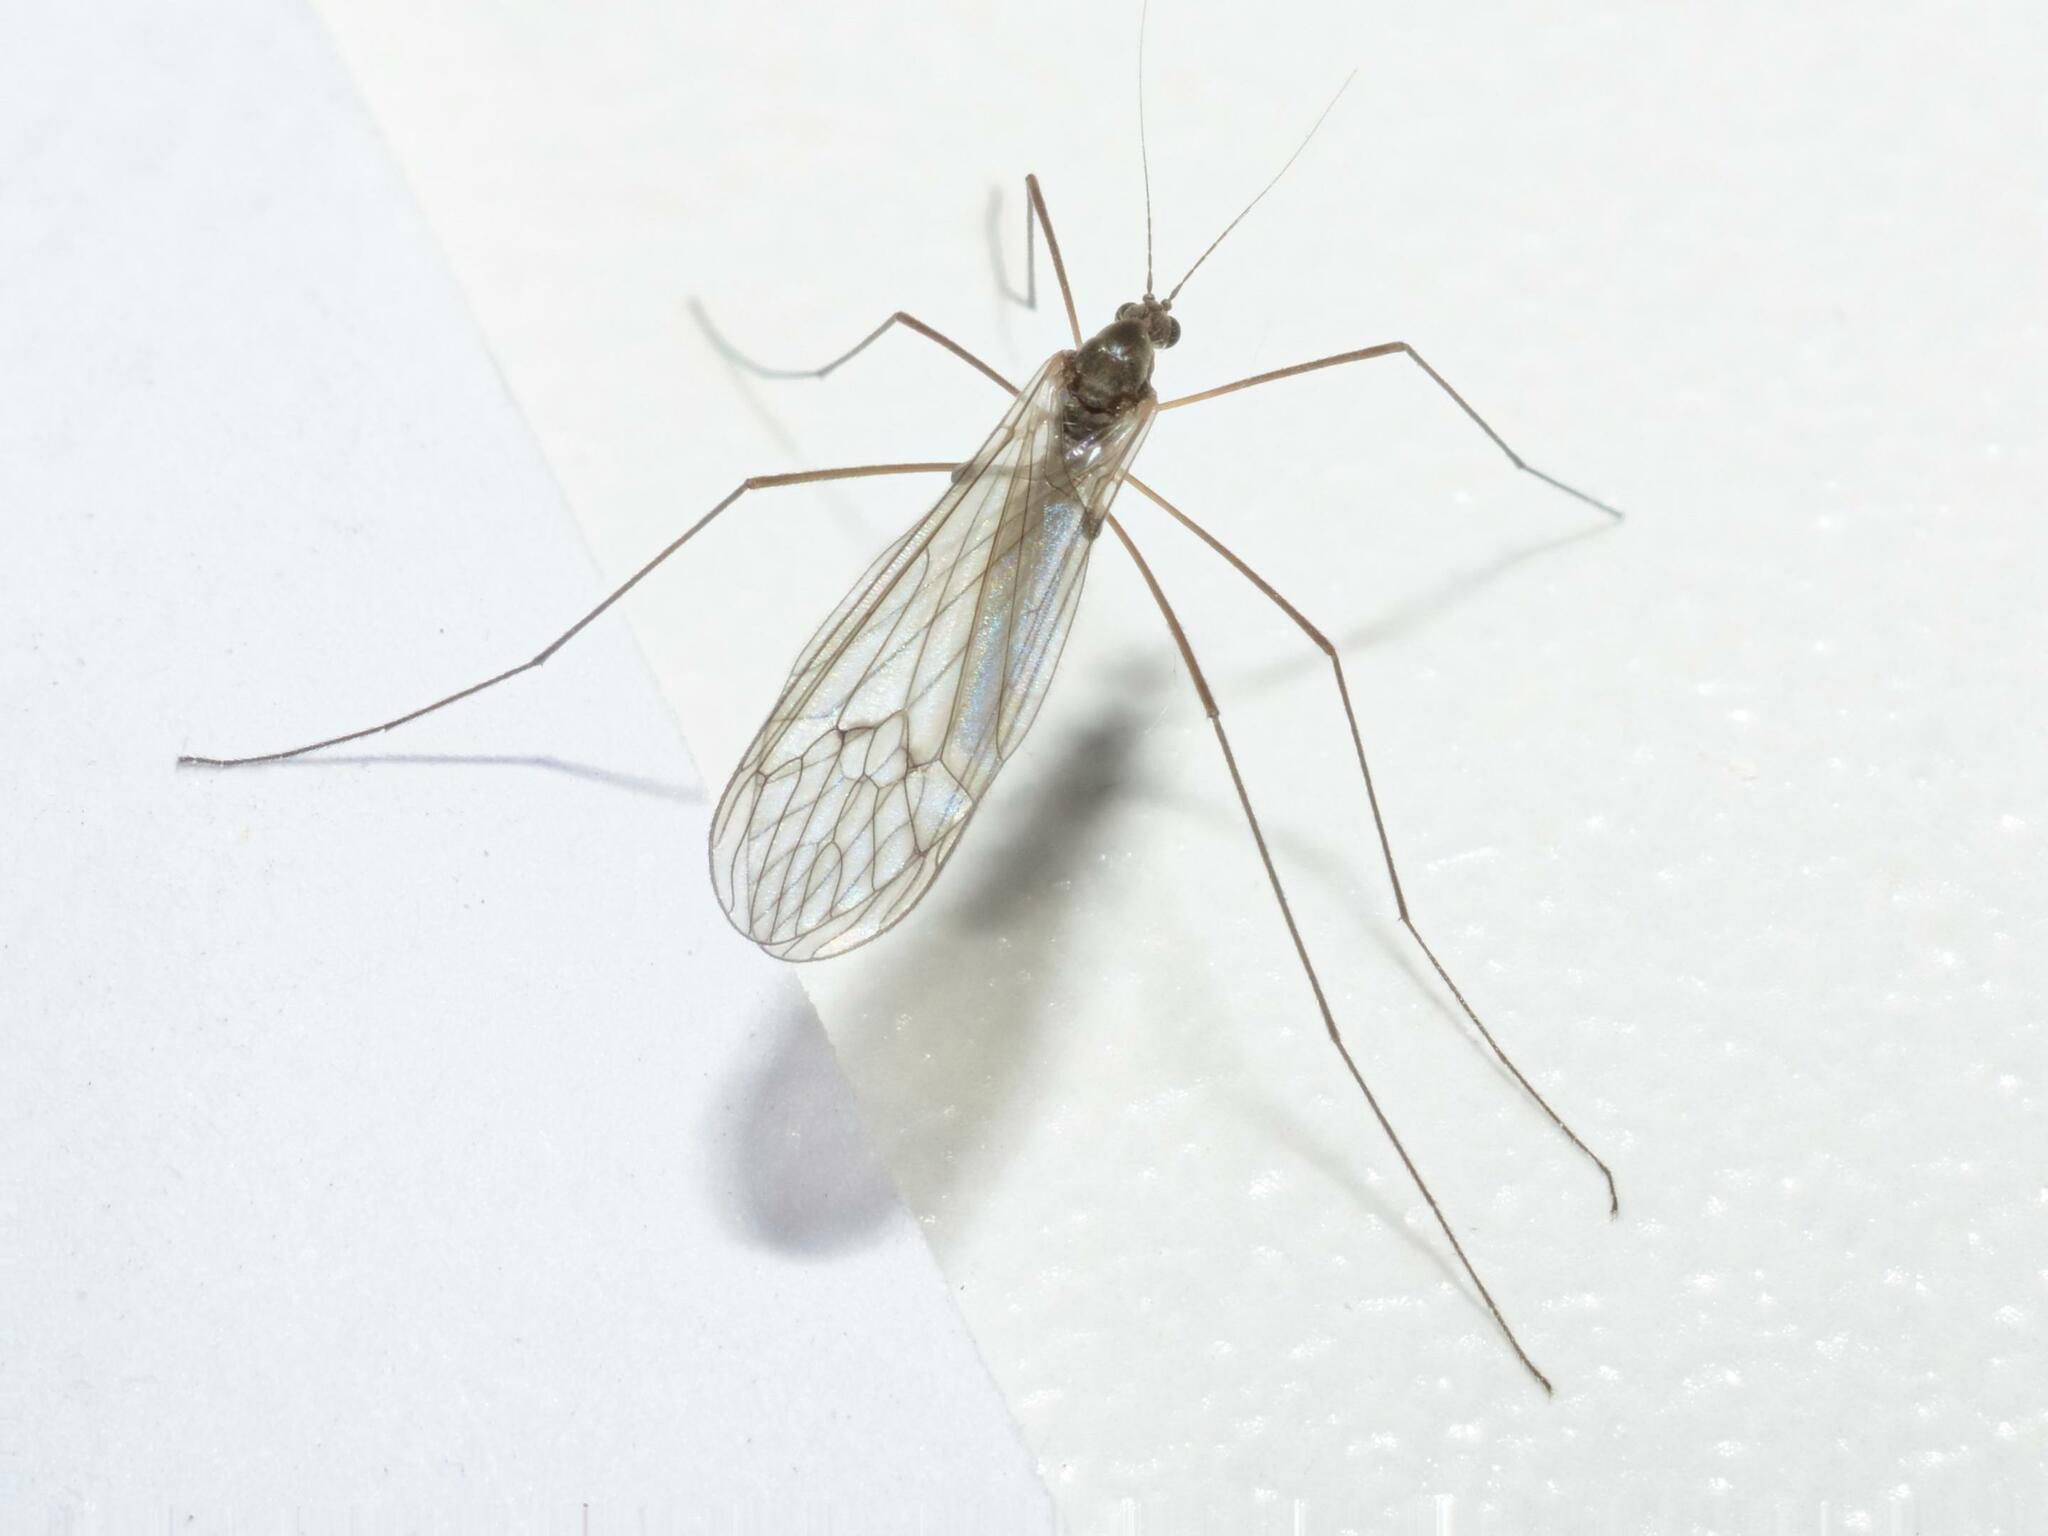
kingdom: Animalia
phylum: Arthropoda
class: Insecta
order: Diptera
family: Trichoceridae
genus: Trichocera
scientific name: Trichocera regelationis
